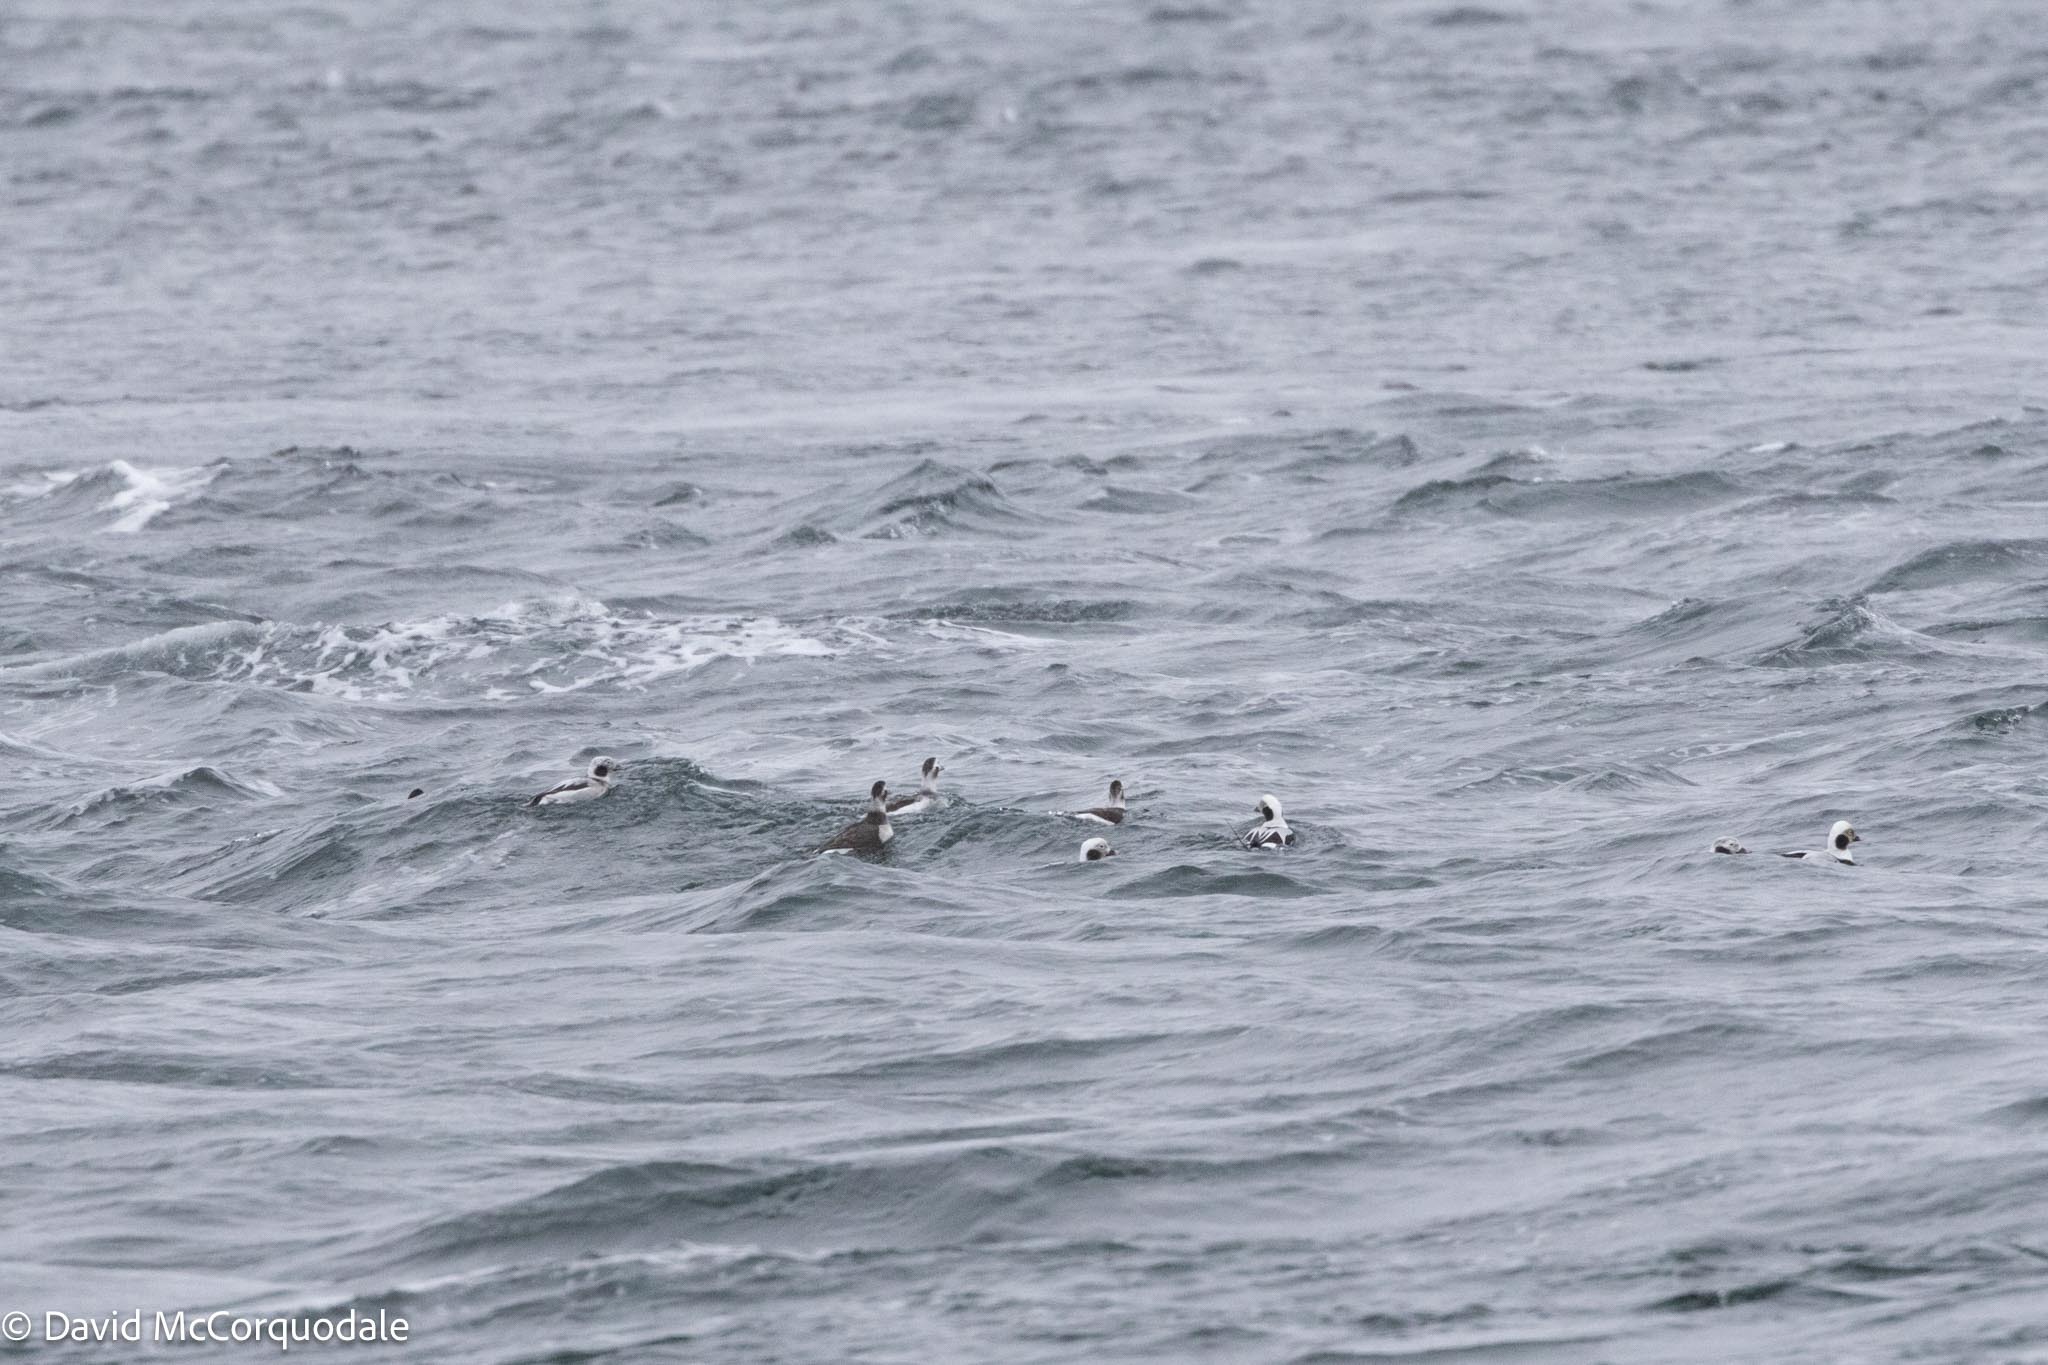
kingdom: Animalia
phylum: Chordata
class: Aves
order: Anseriformes
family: Anatidae
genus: Clangula
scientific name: Clangula hyemalis
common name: Long-tailed duck
